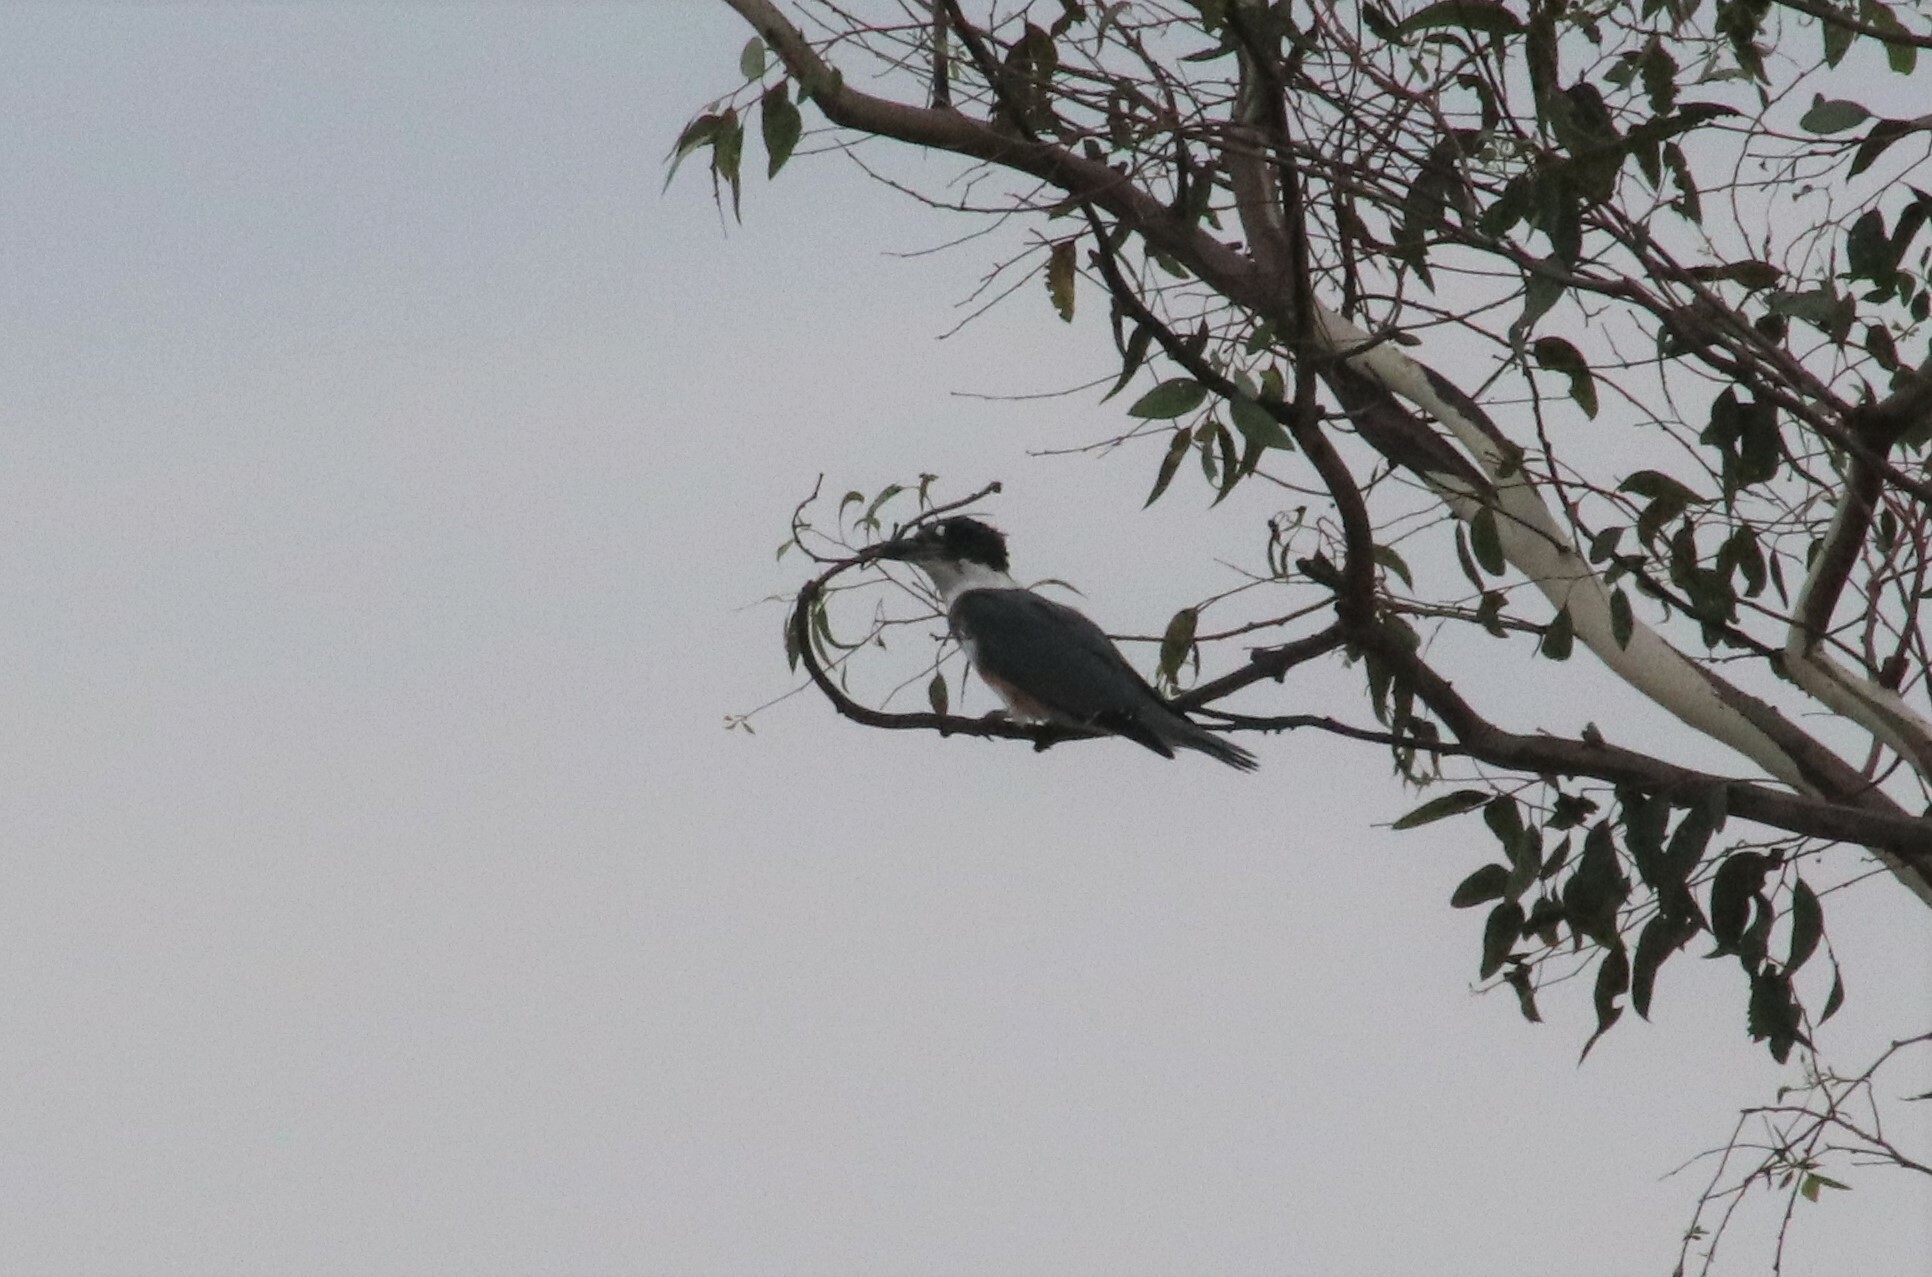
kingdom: Animalia
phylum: Chordata
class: Aves
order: Coraciiformes
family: Alcedinidae
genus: Megaceryle
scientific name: Megaceryle alcyon
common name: Belted kingfisher
